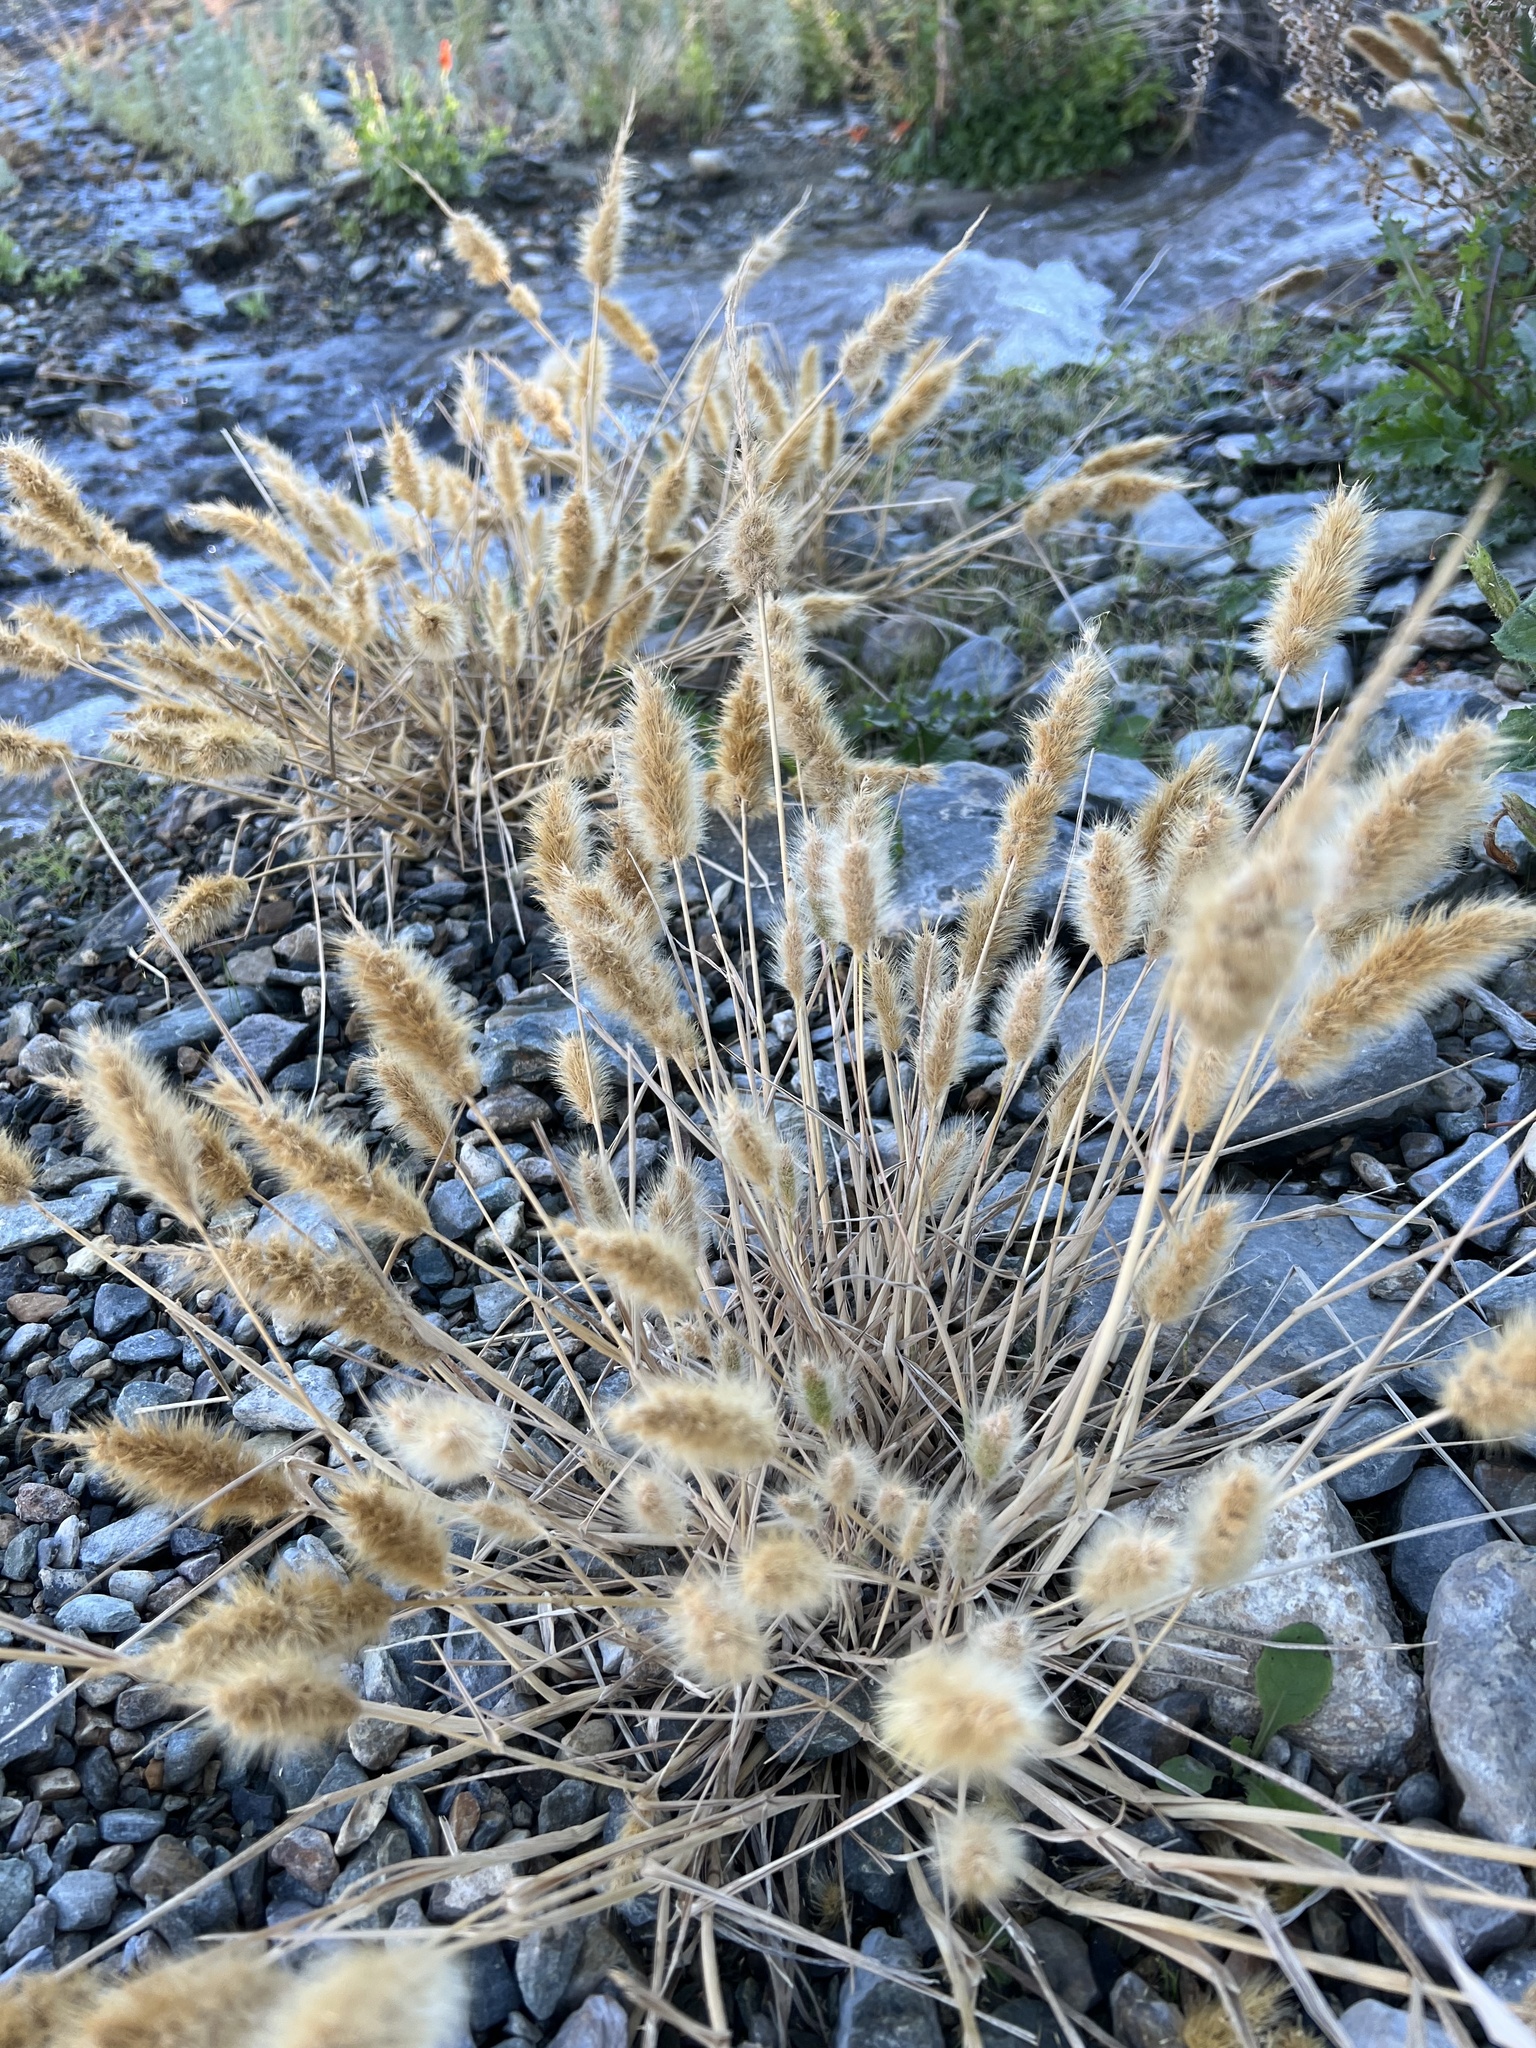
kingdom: Plantae
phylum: Tracheophyta
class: Liliopsida
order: Poales
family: Poaceae
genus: Polypogon
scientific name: Polypogon monspeliensis
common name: Annual rabbitsfoot grass
